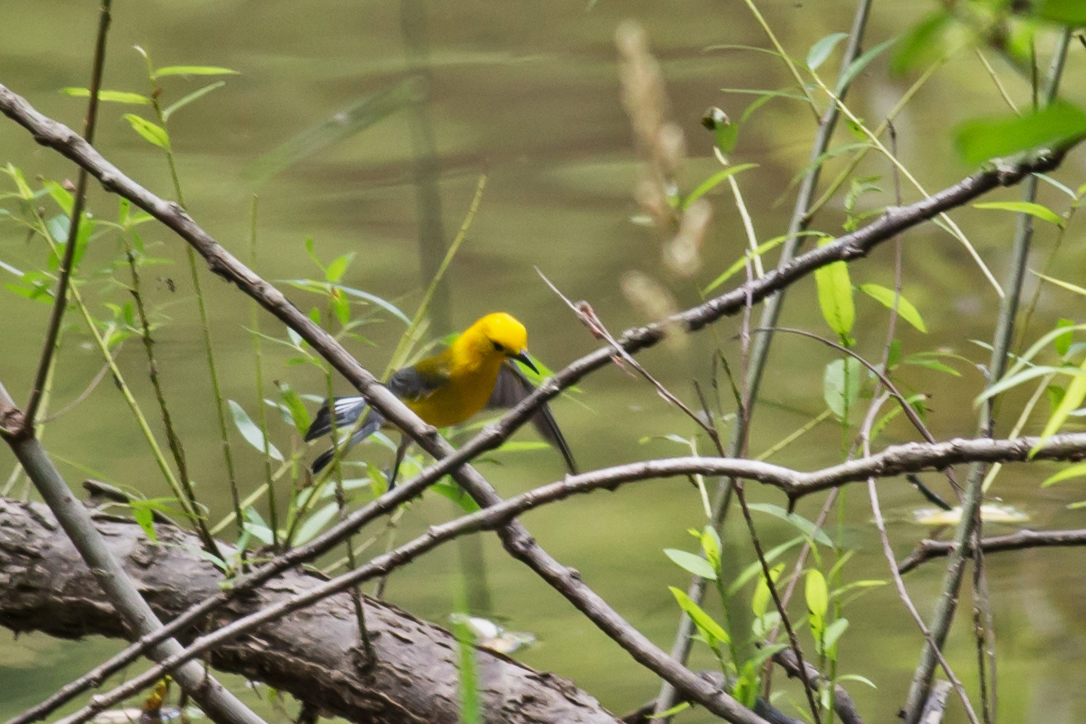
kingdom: Animalia
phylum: Chordata
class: Aves
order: Passeriformes
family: Parulidae
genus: Protonotaria
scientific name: Protonotaria citrea
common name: Prothonotary warbler
